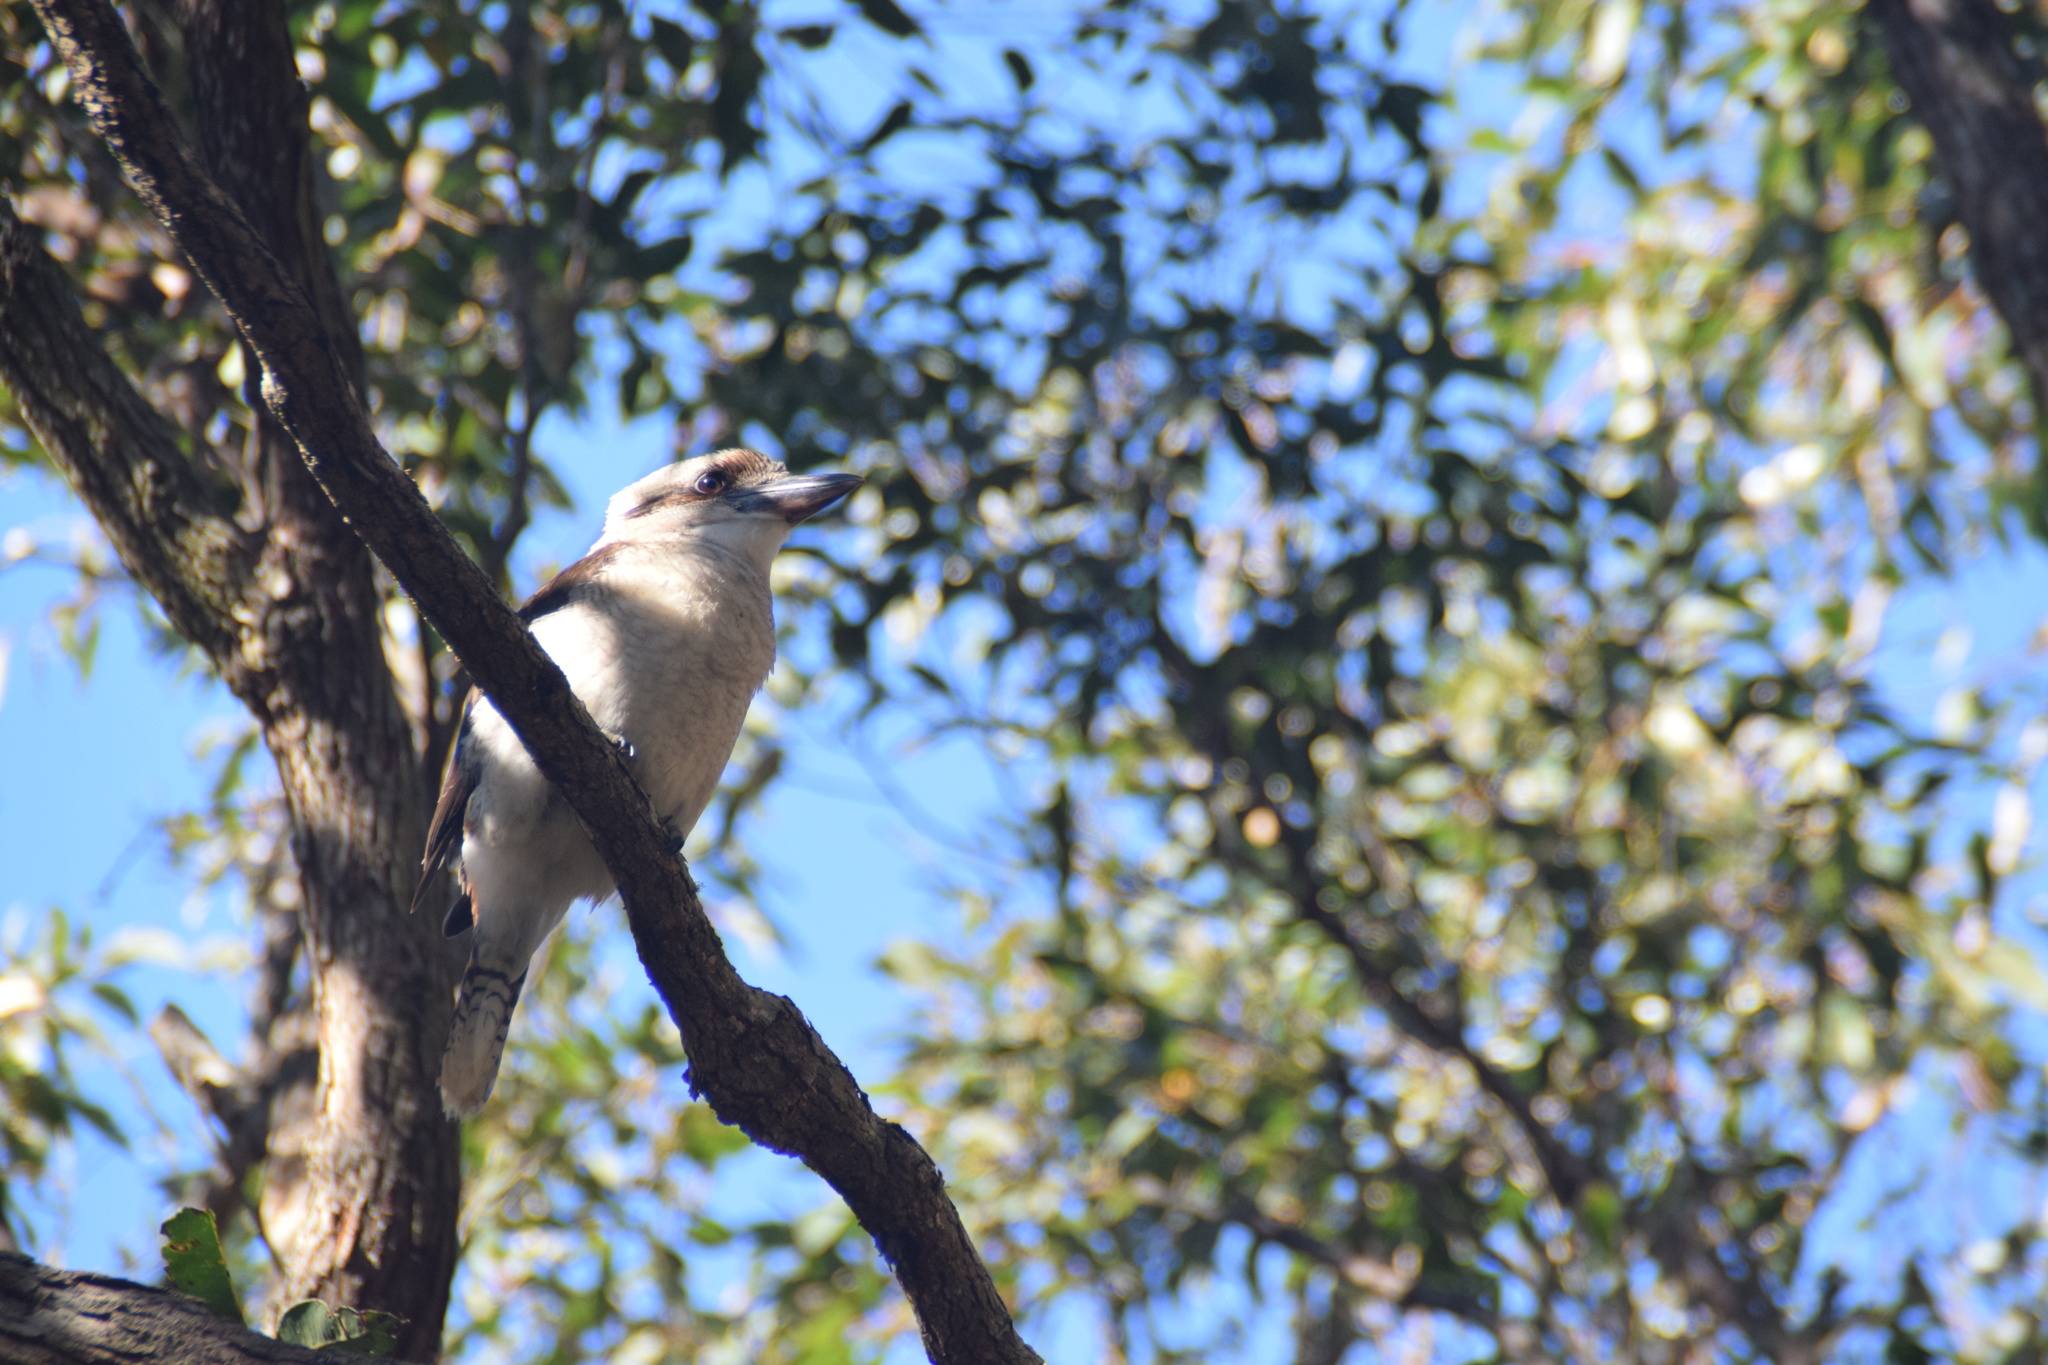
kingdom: Animalia
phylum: Chordata
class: Aves
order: Coraciiformes
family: Alcedinidae
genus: Dacelo
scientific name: Dacelo novaeguineae
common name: Laughing kookaburra
